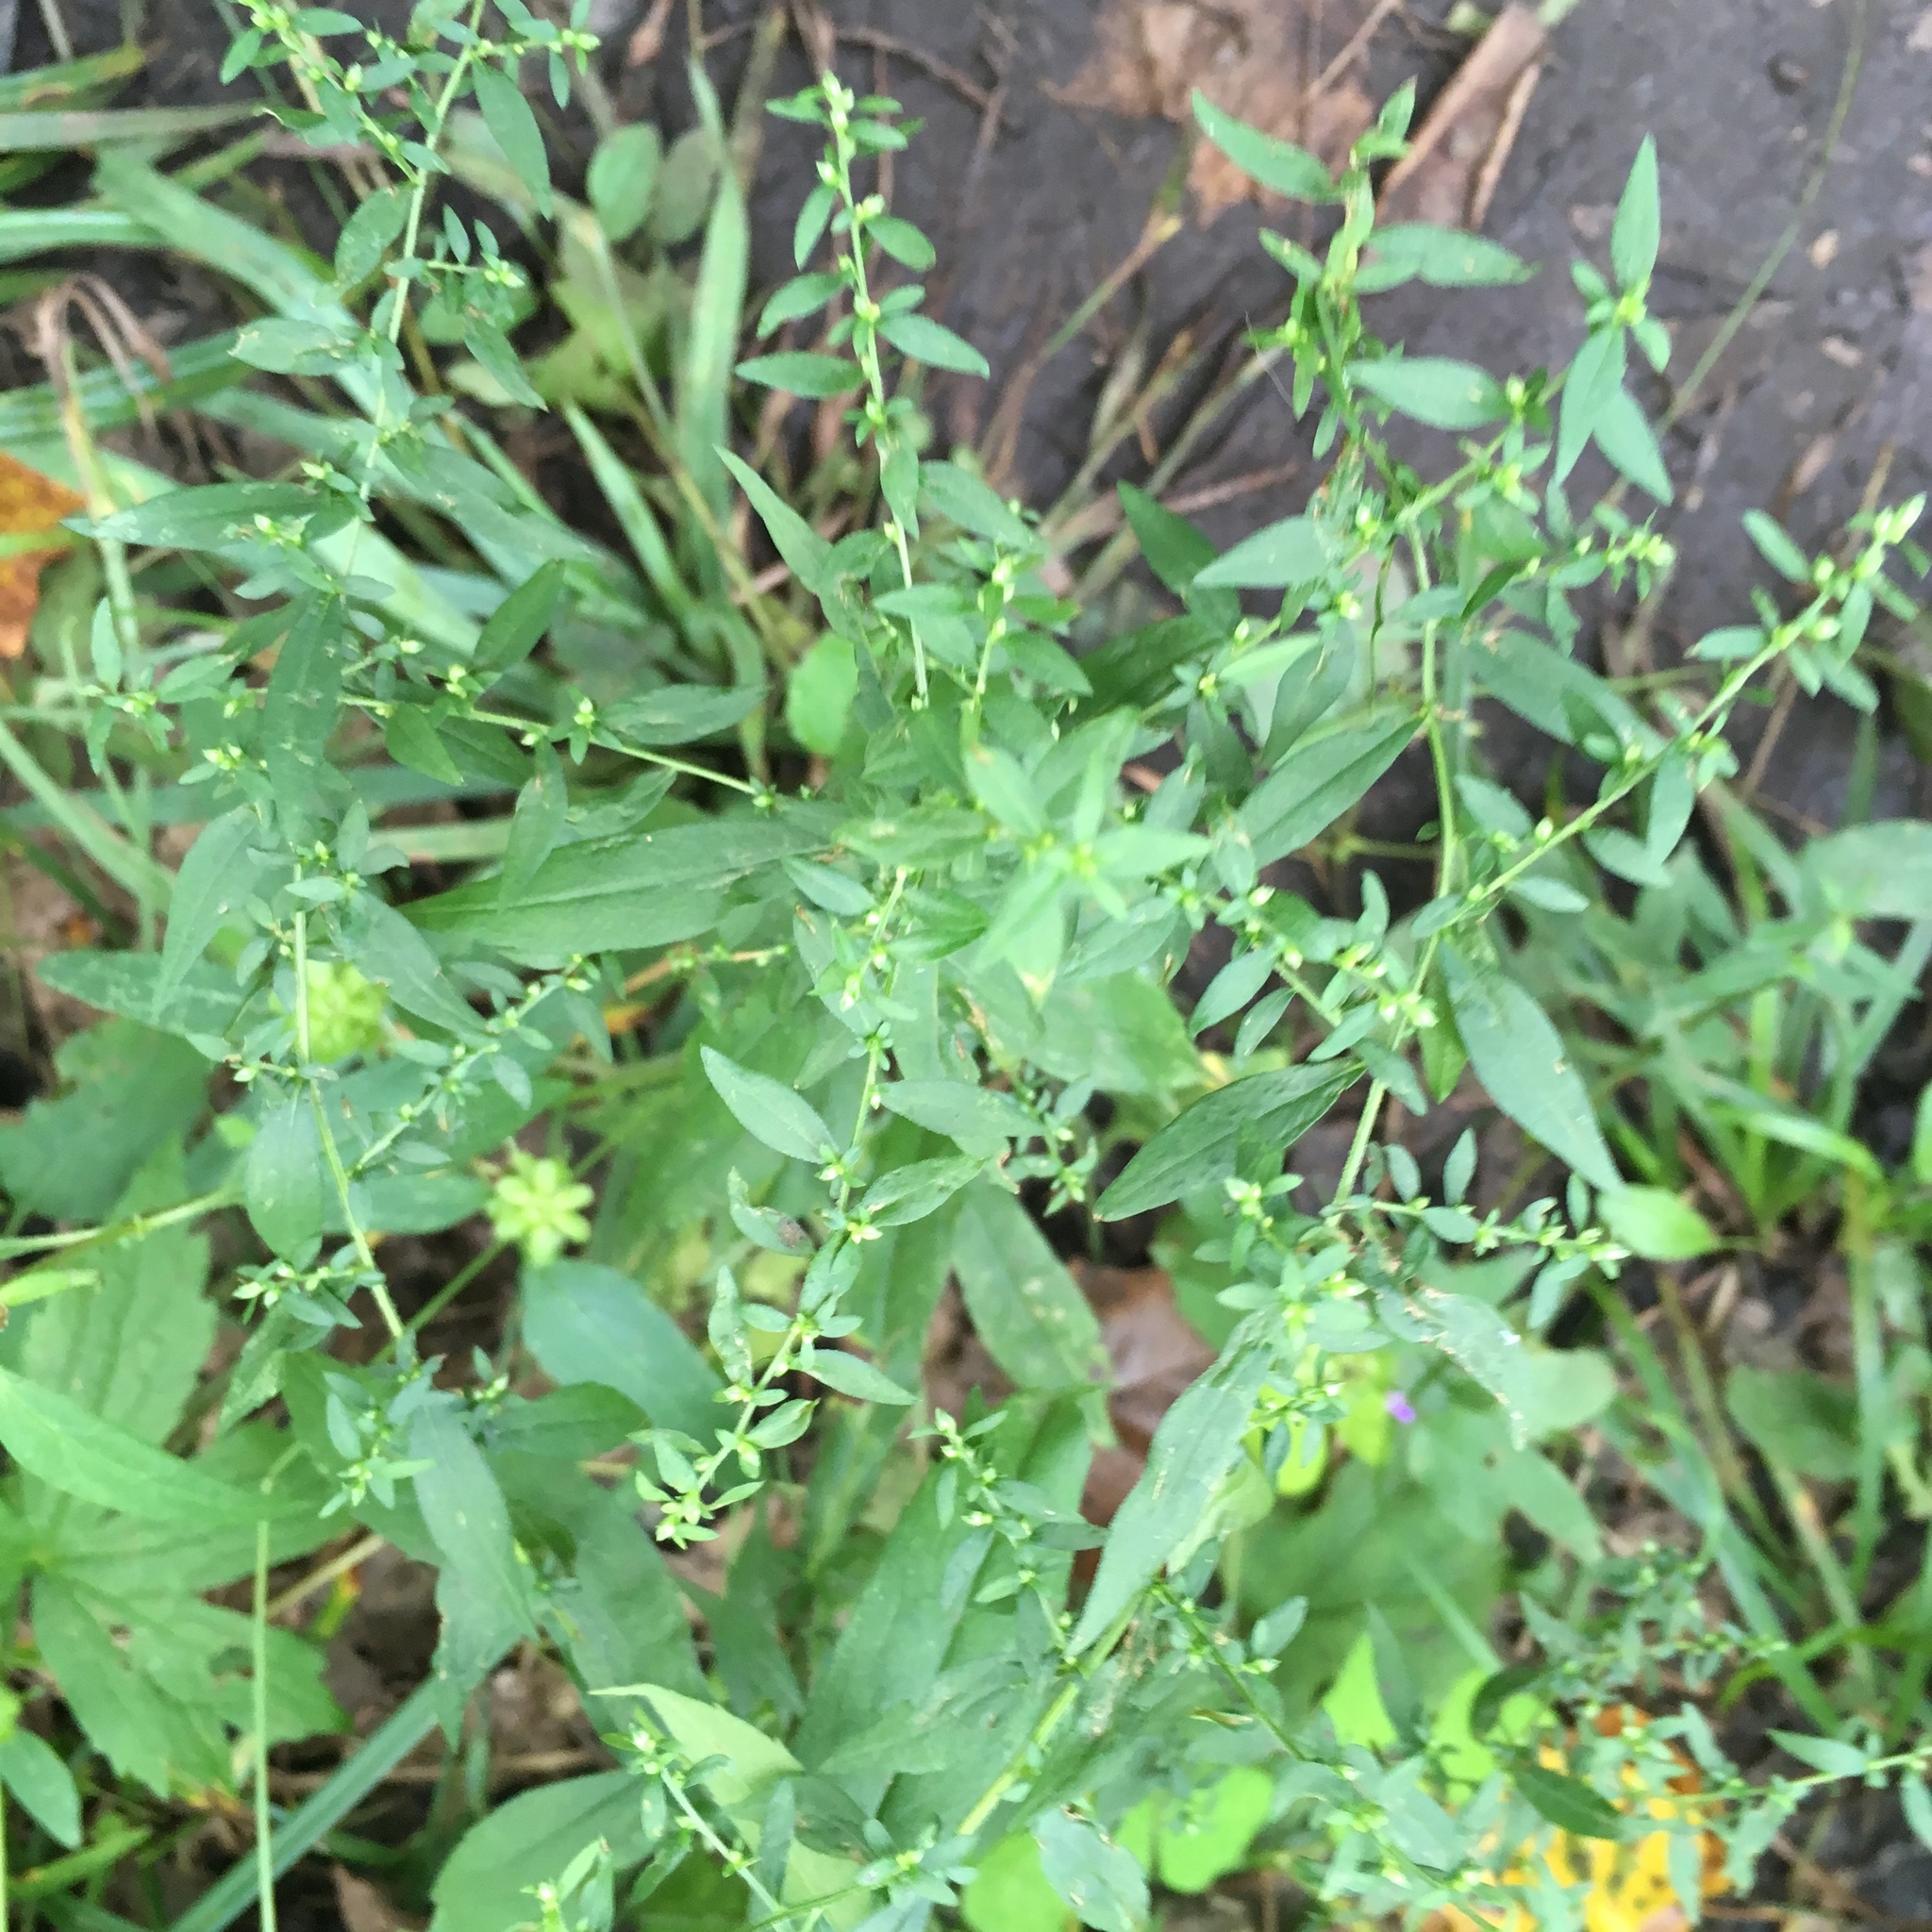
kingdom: Plantae
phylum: Tracheophyta
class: Magnoliopsida
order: Asterales
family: Asteraceae
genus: Symphyotrichum
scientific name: Symphyotrichum lateriflorum
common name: Calico aster
